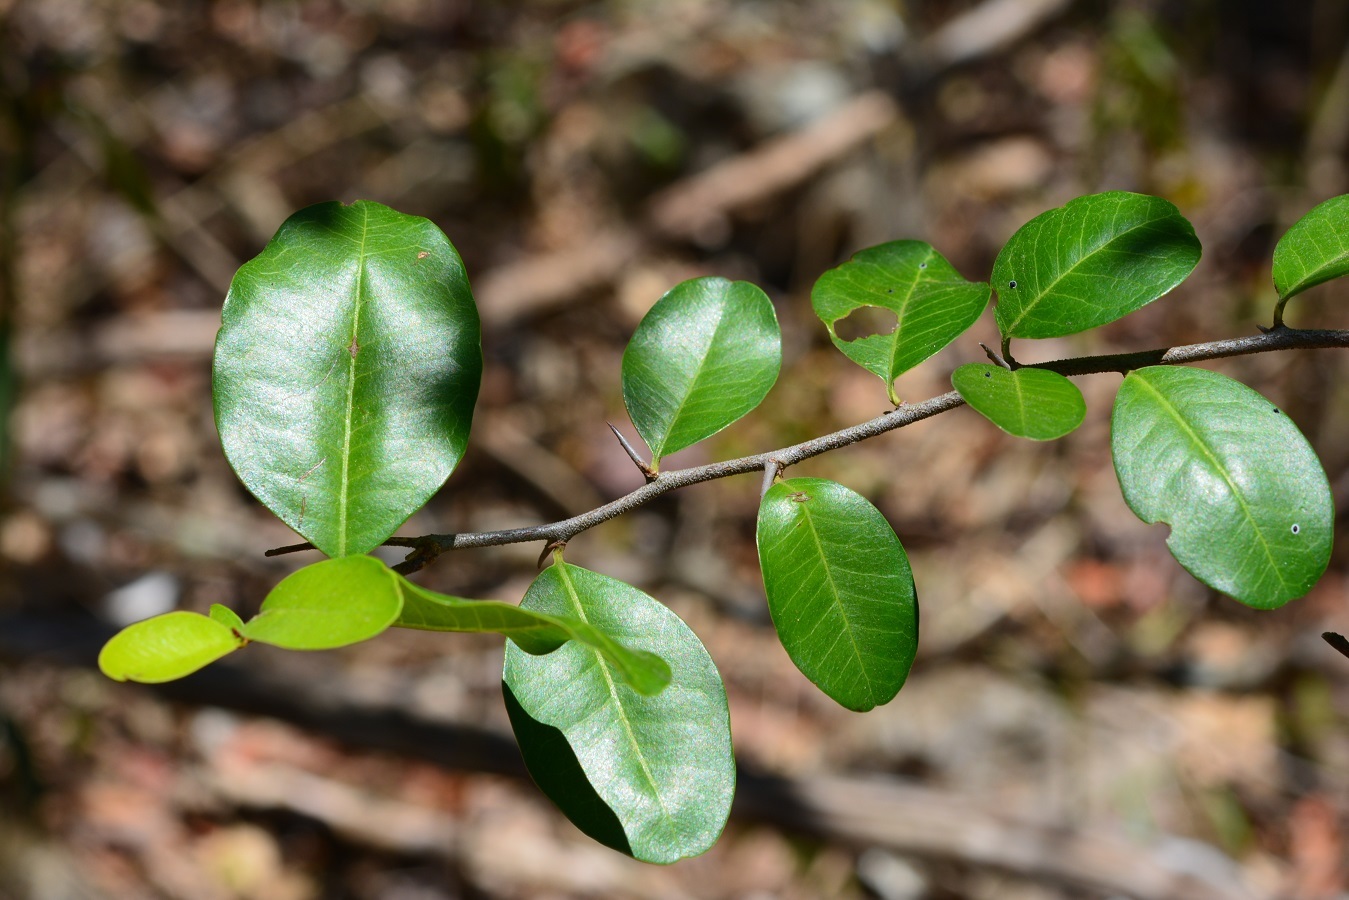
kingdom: Plantae
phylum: Tracheophyta
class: Magnoliopsida
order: Malpighiales
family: Erythroxylaceae
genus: Erythroxylum
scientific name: Erythroxylum mexicanum
